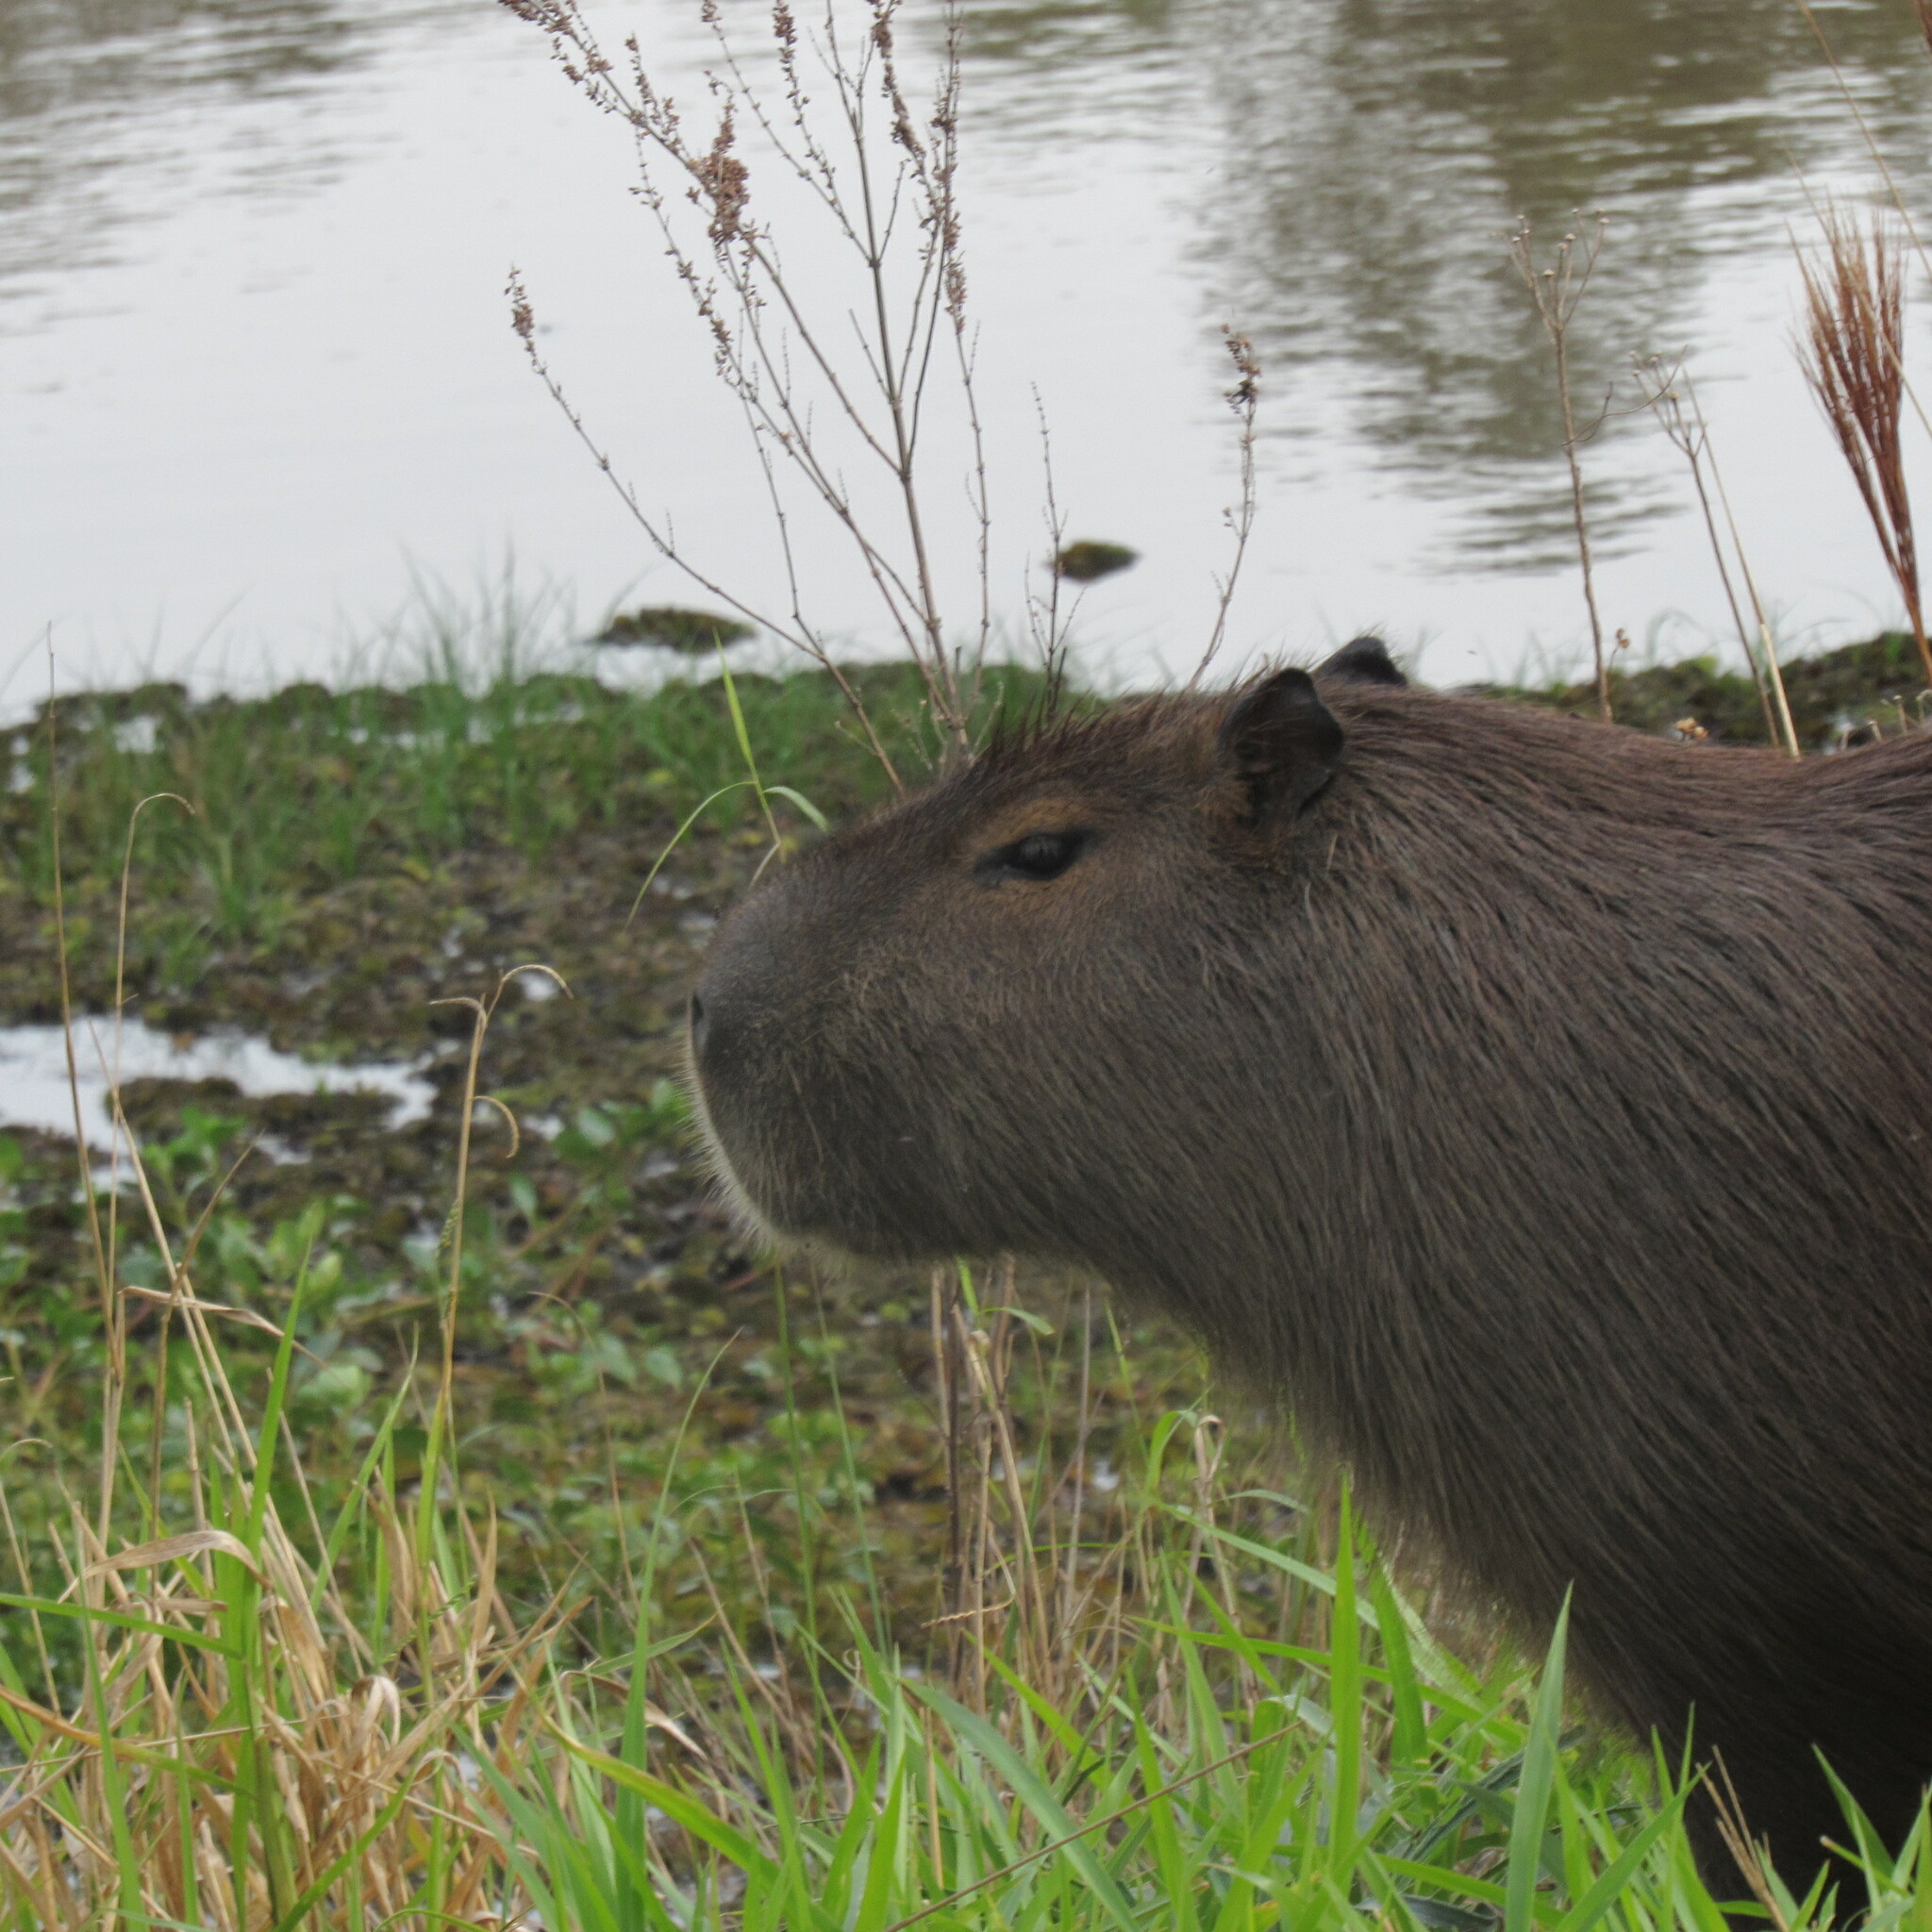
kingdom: Animalia
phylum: Chordata
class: Mammalia
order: Rodentia
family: Caviidae
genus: Hydrochoerus
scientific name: Hydrochoerus hydrochaeris
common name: Capybara
